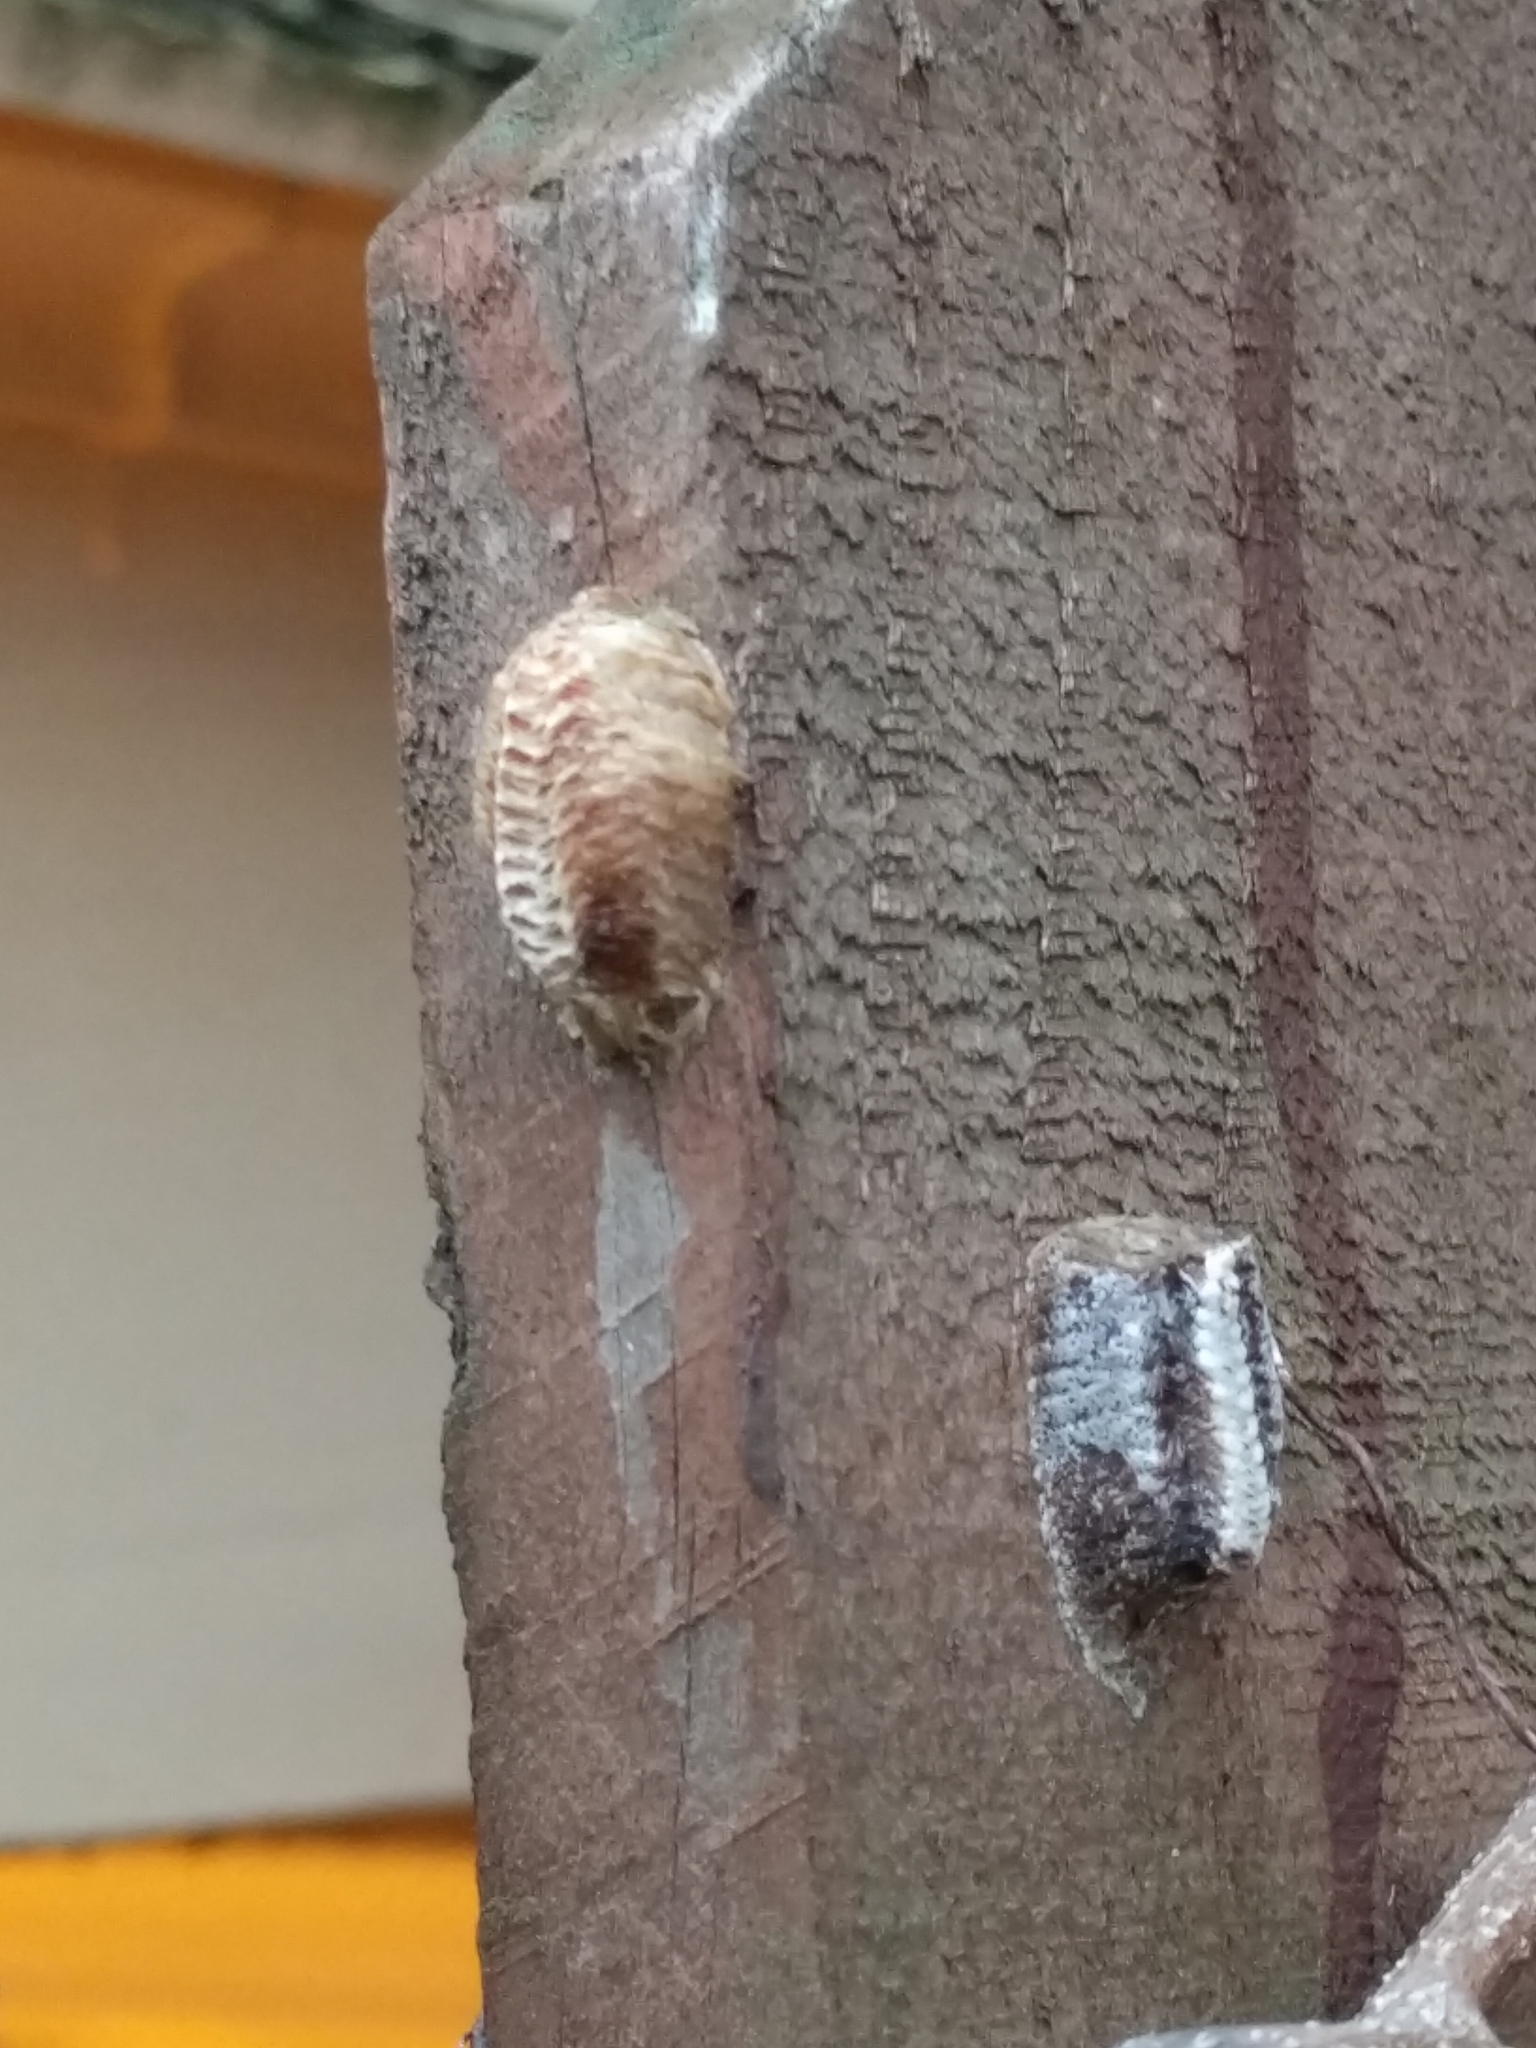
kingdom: Animalia
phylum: Arthropoda
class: Insecta
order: Mantodea
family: Mantidae
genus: Stagmomantis
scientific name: Stagmomantis carolina
